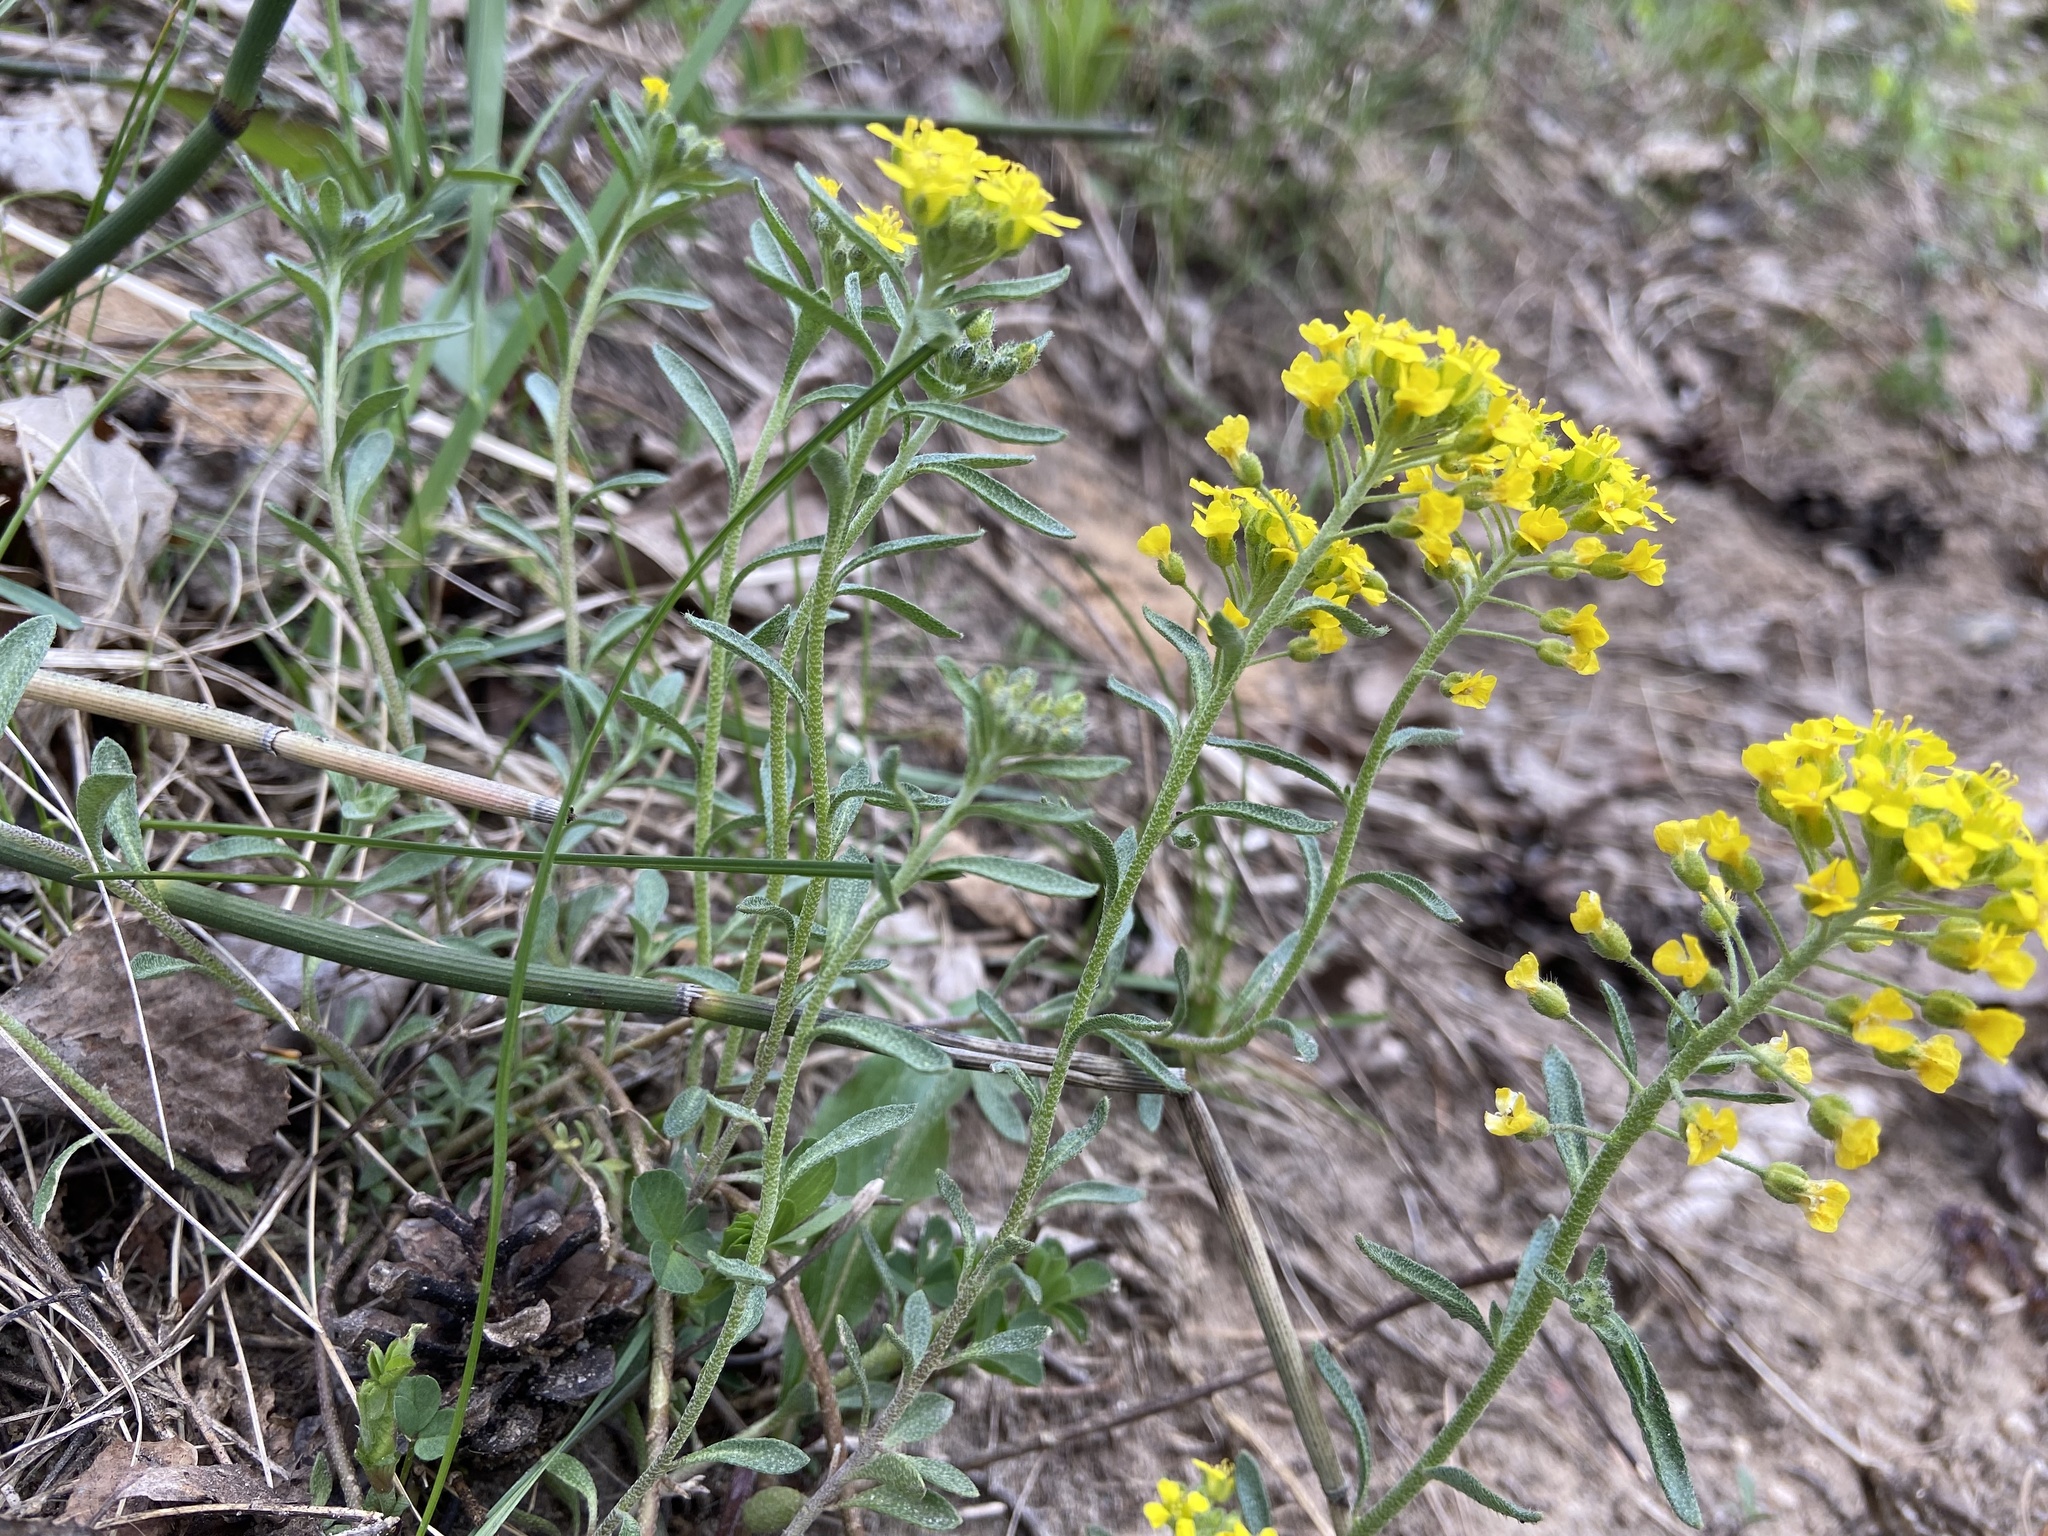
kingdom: Plantae
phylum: Tracheophyta
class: Magnoliopsida
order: Brassicales
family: Brassicaceae
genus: Alyssum
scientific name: Alyssum gmelinii
